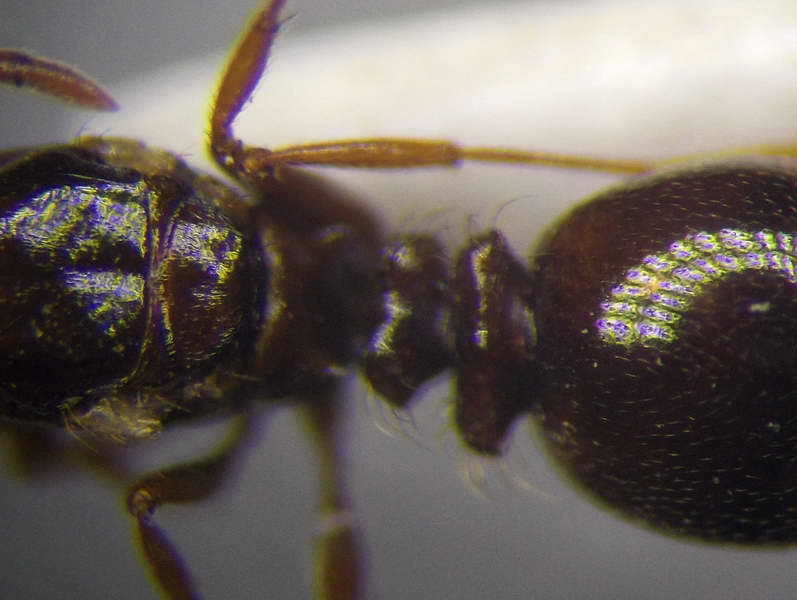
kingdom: Animalia
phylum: Arthropoda
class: Insecta
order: Hymenoptera
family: Formicidae
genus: Tetramorium
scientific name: Tetramorium ferox
